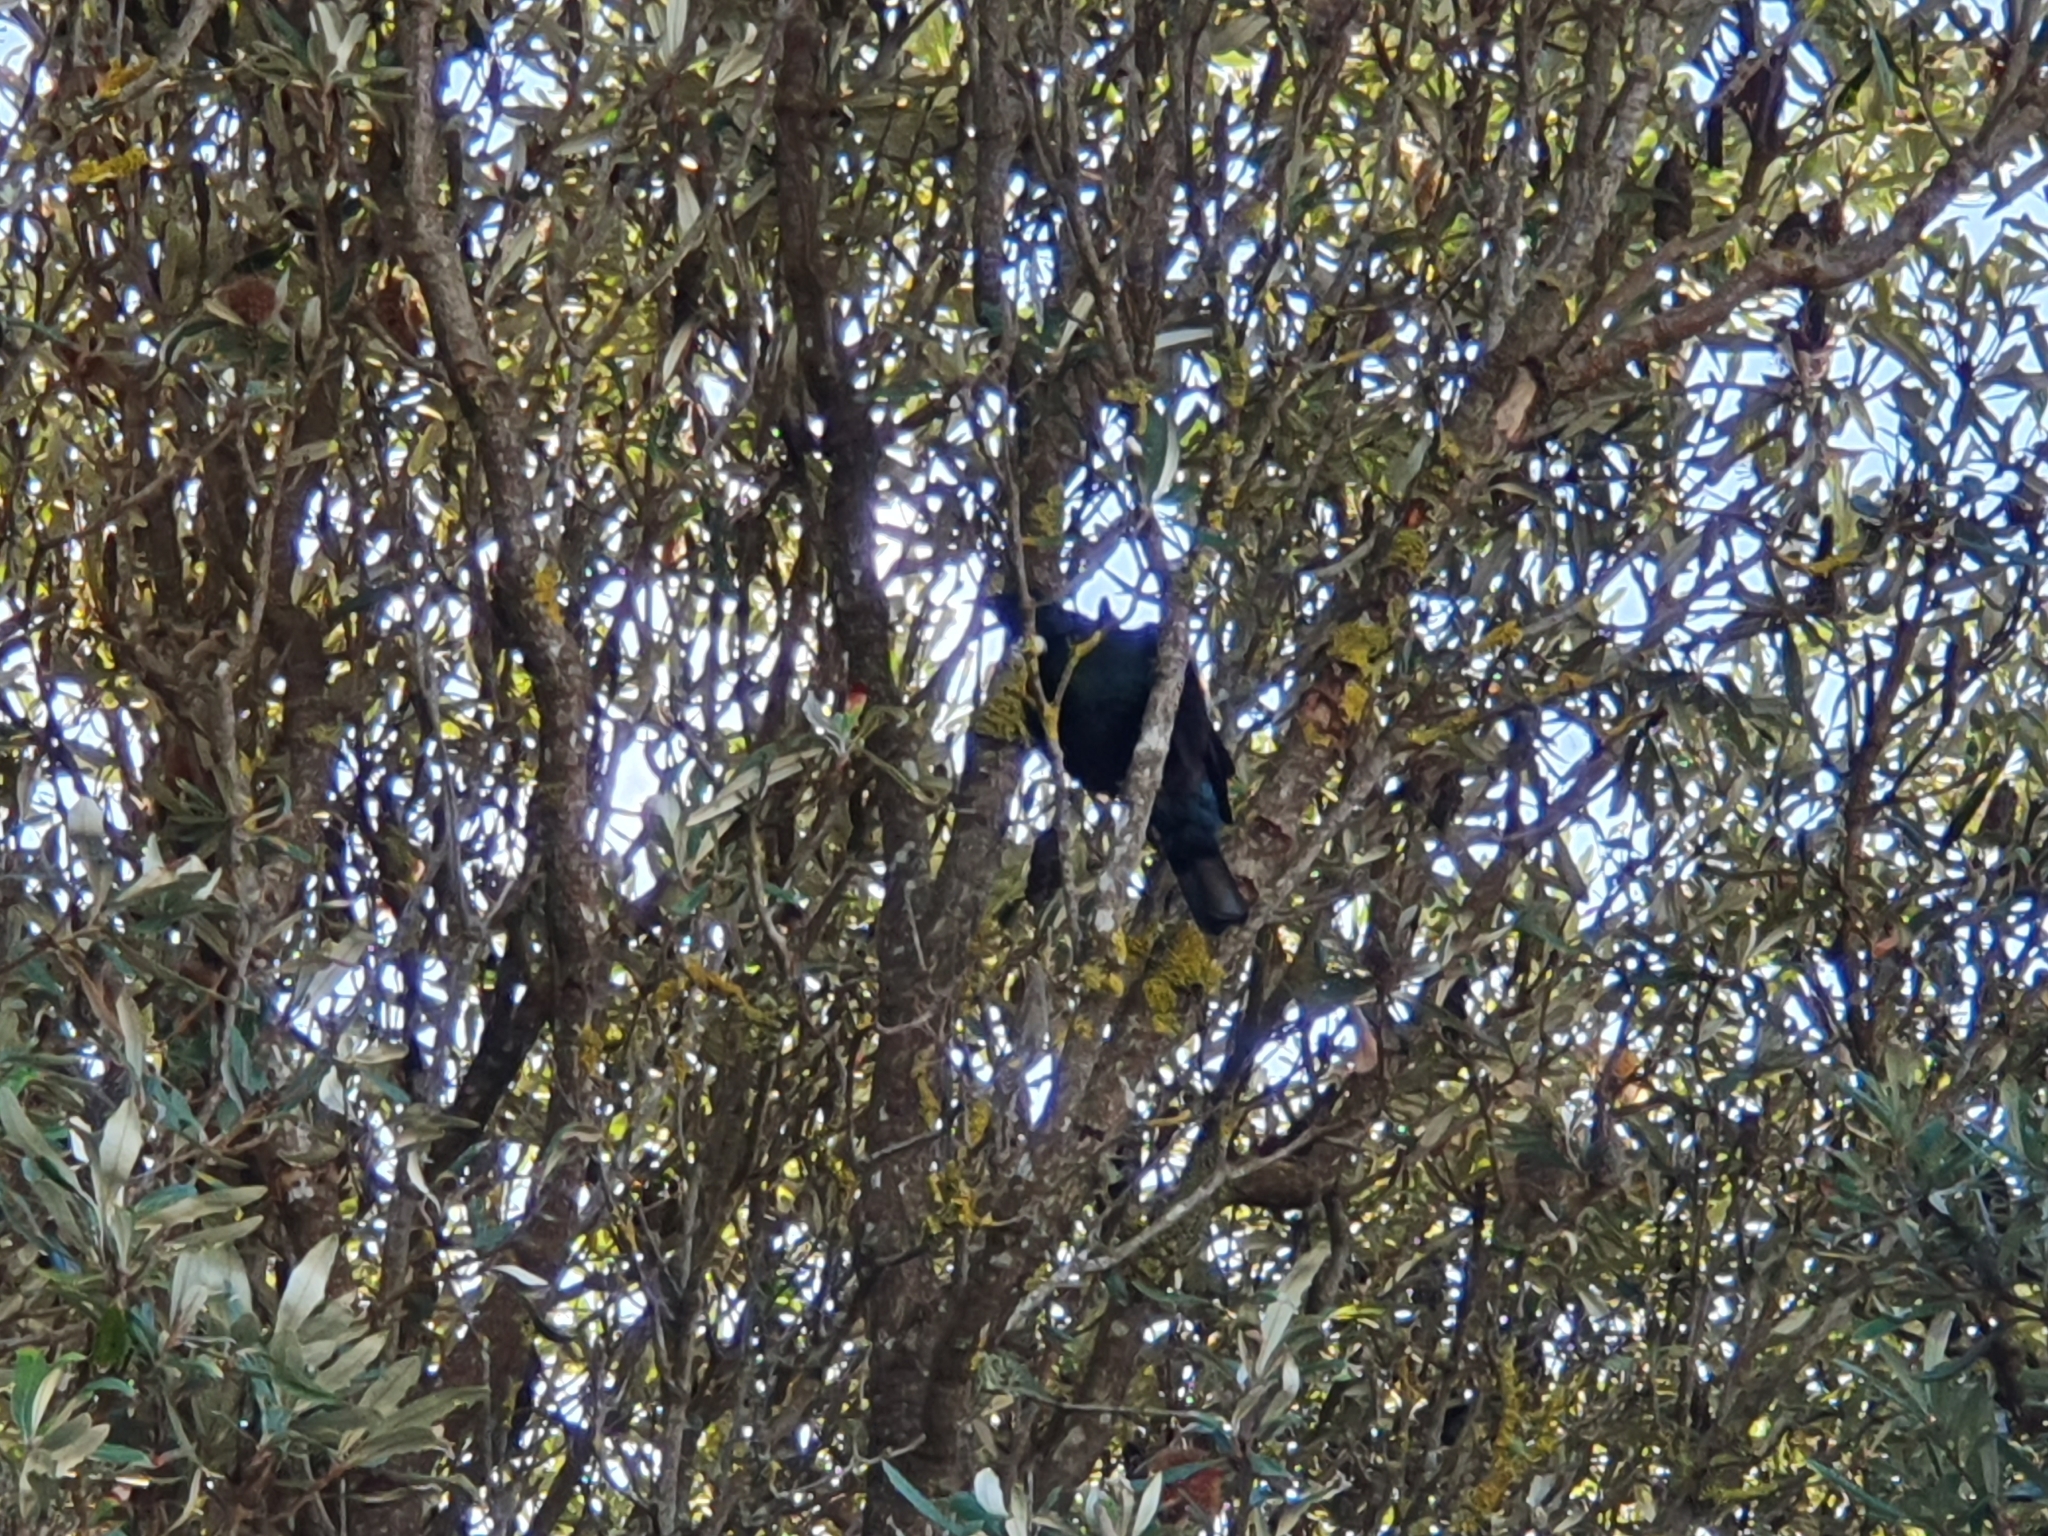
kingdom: Animalia
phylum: Chordata
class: Aves
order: Passeriformes
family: Meliphagidae
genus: Prosthemadera
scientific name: Prosthemadera novaeseelandiae
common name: Tui
